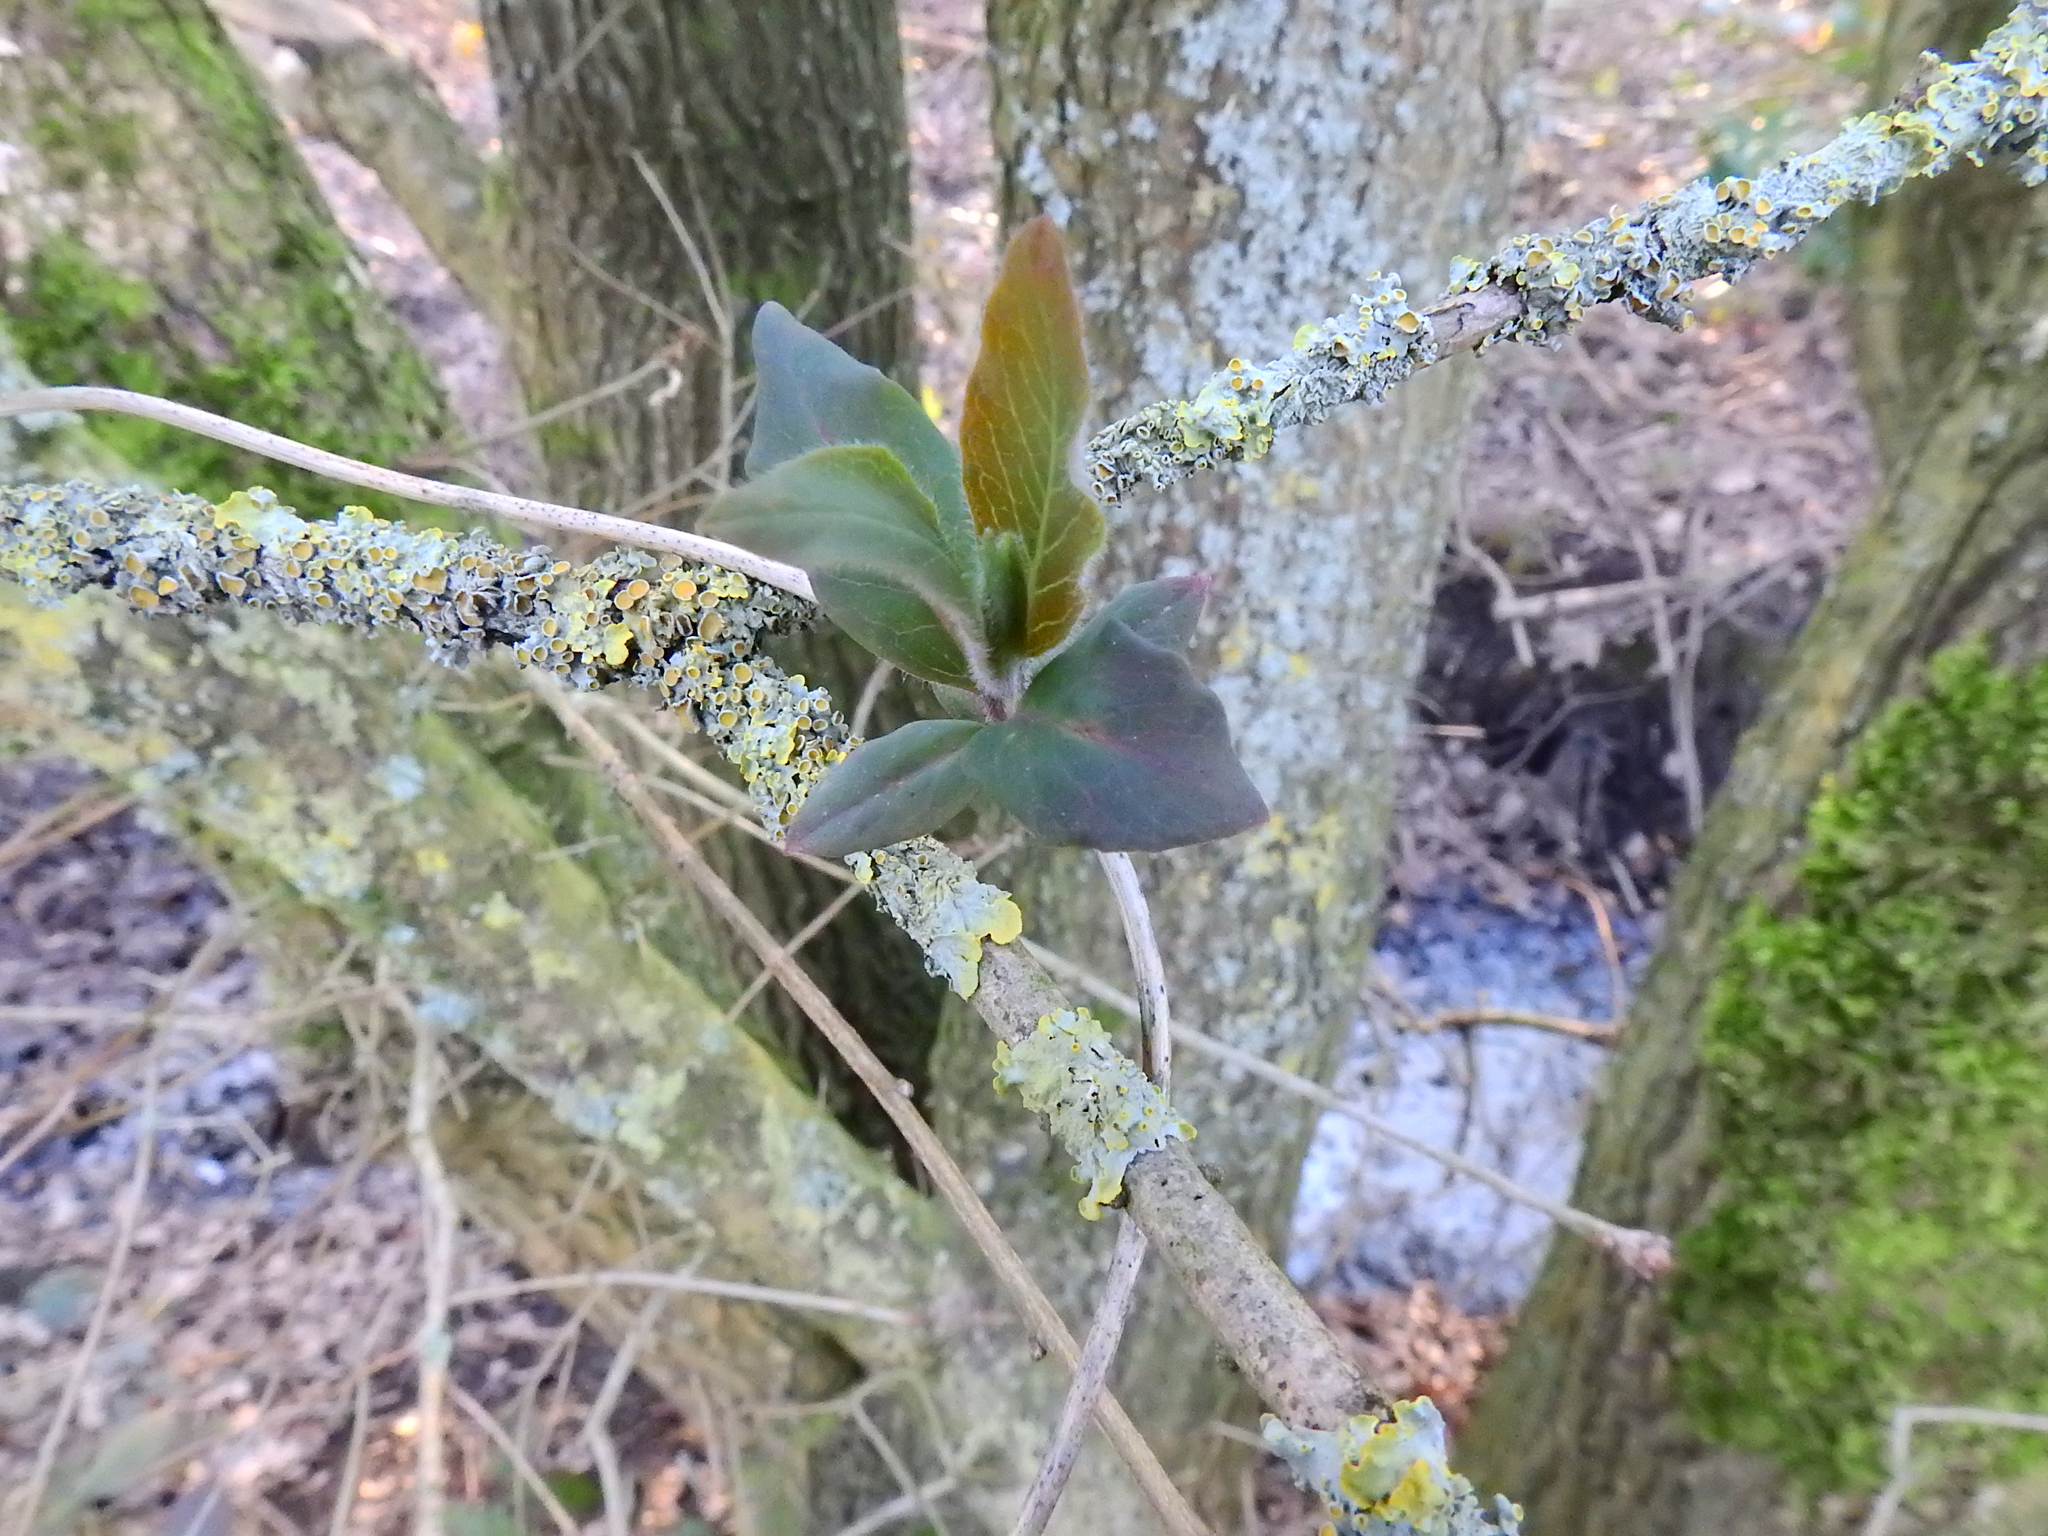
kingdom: Plantae
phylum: Tracheophyta
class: Magnoliopsida
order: Dipsacales
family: Caprifoliaceae
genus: Lonicera
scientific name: Lonicera periclymenum
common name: European honeysuckle
